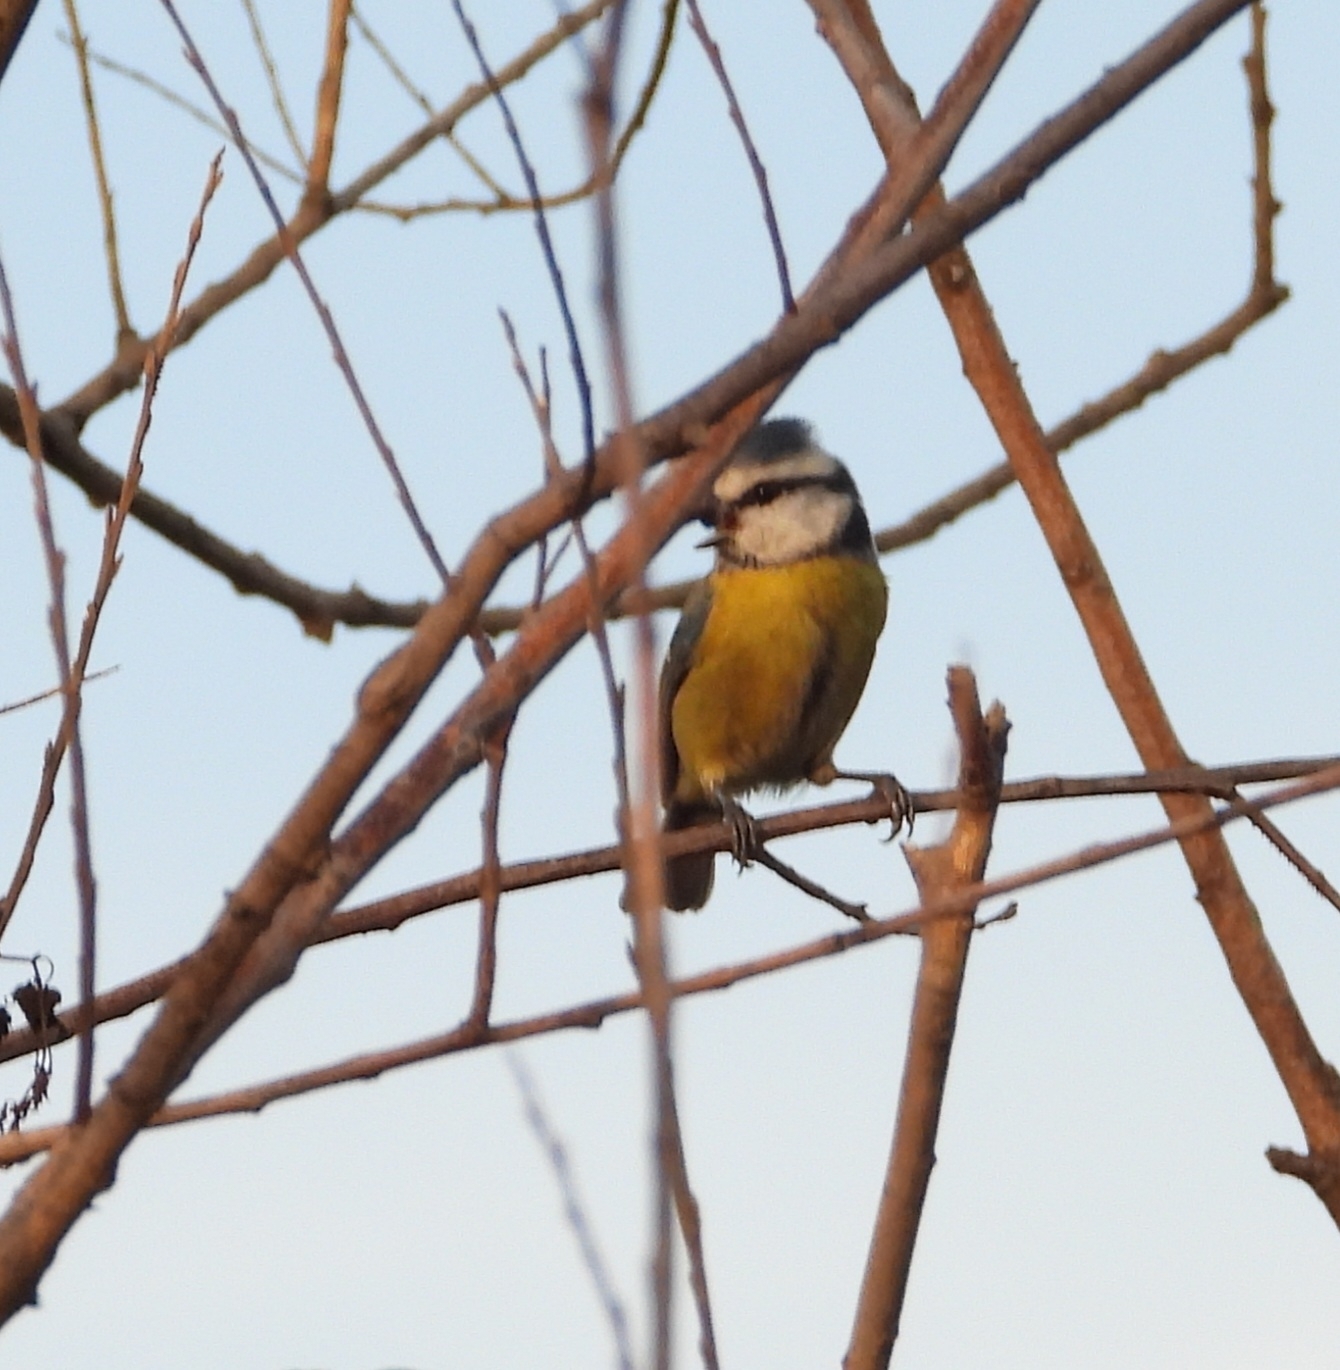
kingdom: Animalia
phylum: Chordata
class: Aves
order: Passeriformes
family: Paridae
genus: Cyanistes
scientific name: Cyanistes caeruleus
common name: Eurasian blue tit
